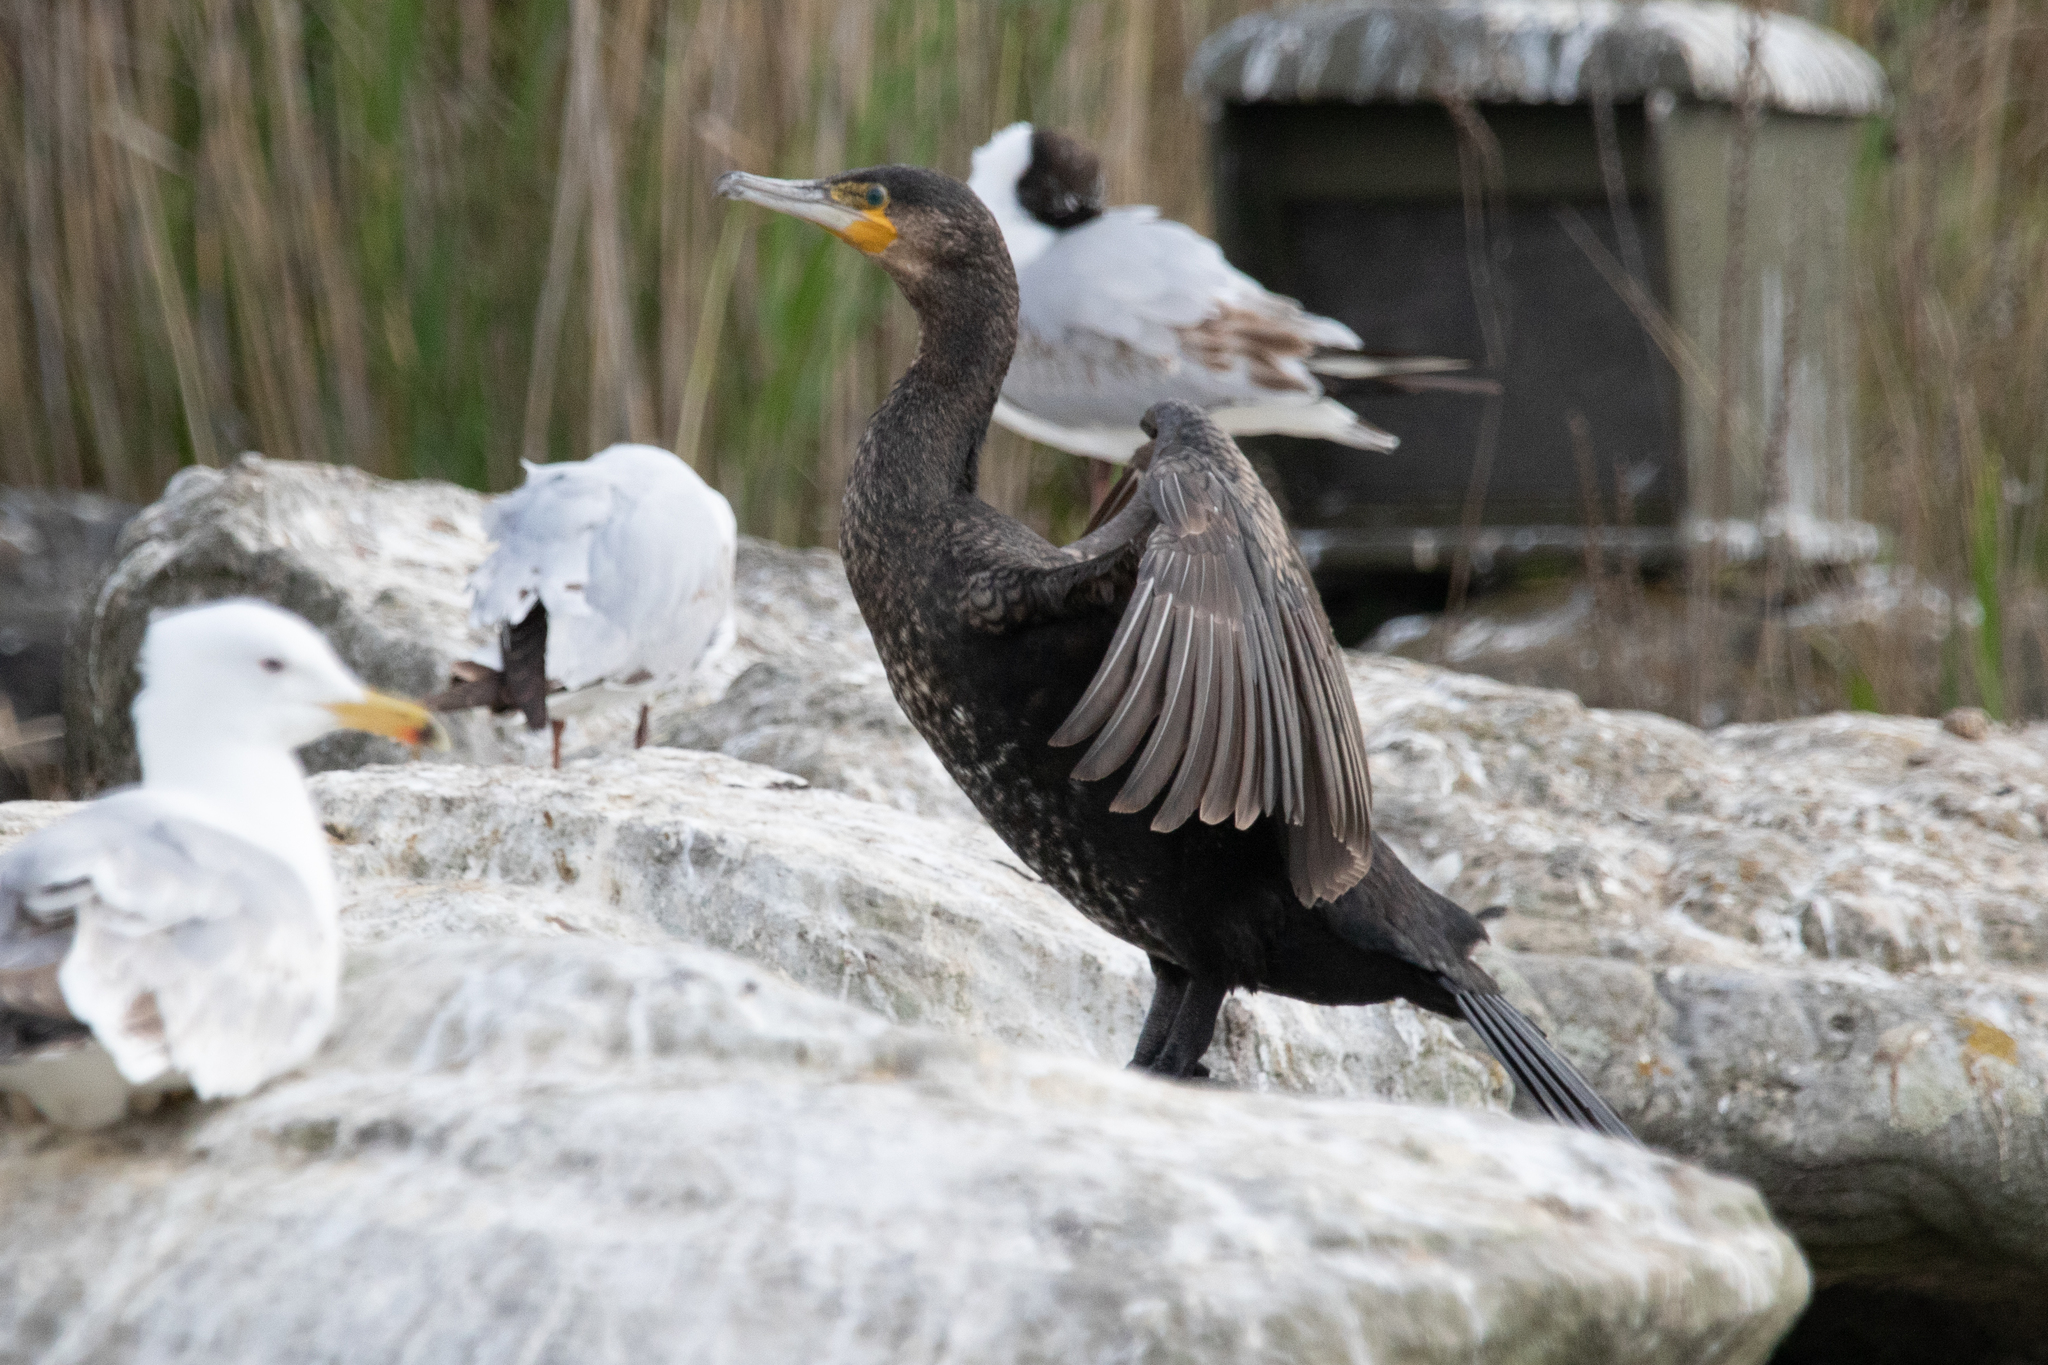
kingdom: Animalia
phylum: Chordata
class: Aves
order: Suliformes
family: Phalacrocoracidae
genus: Phalacrocorax
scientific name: Phalacrocorax carbo
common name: Great cormorant
